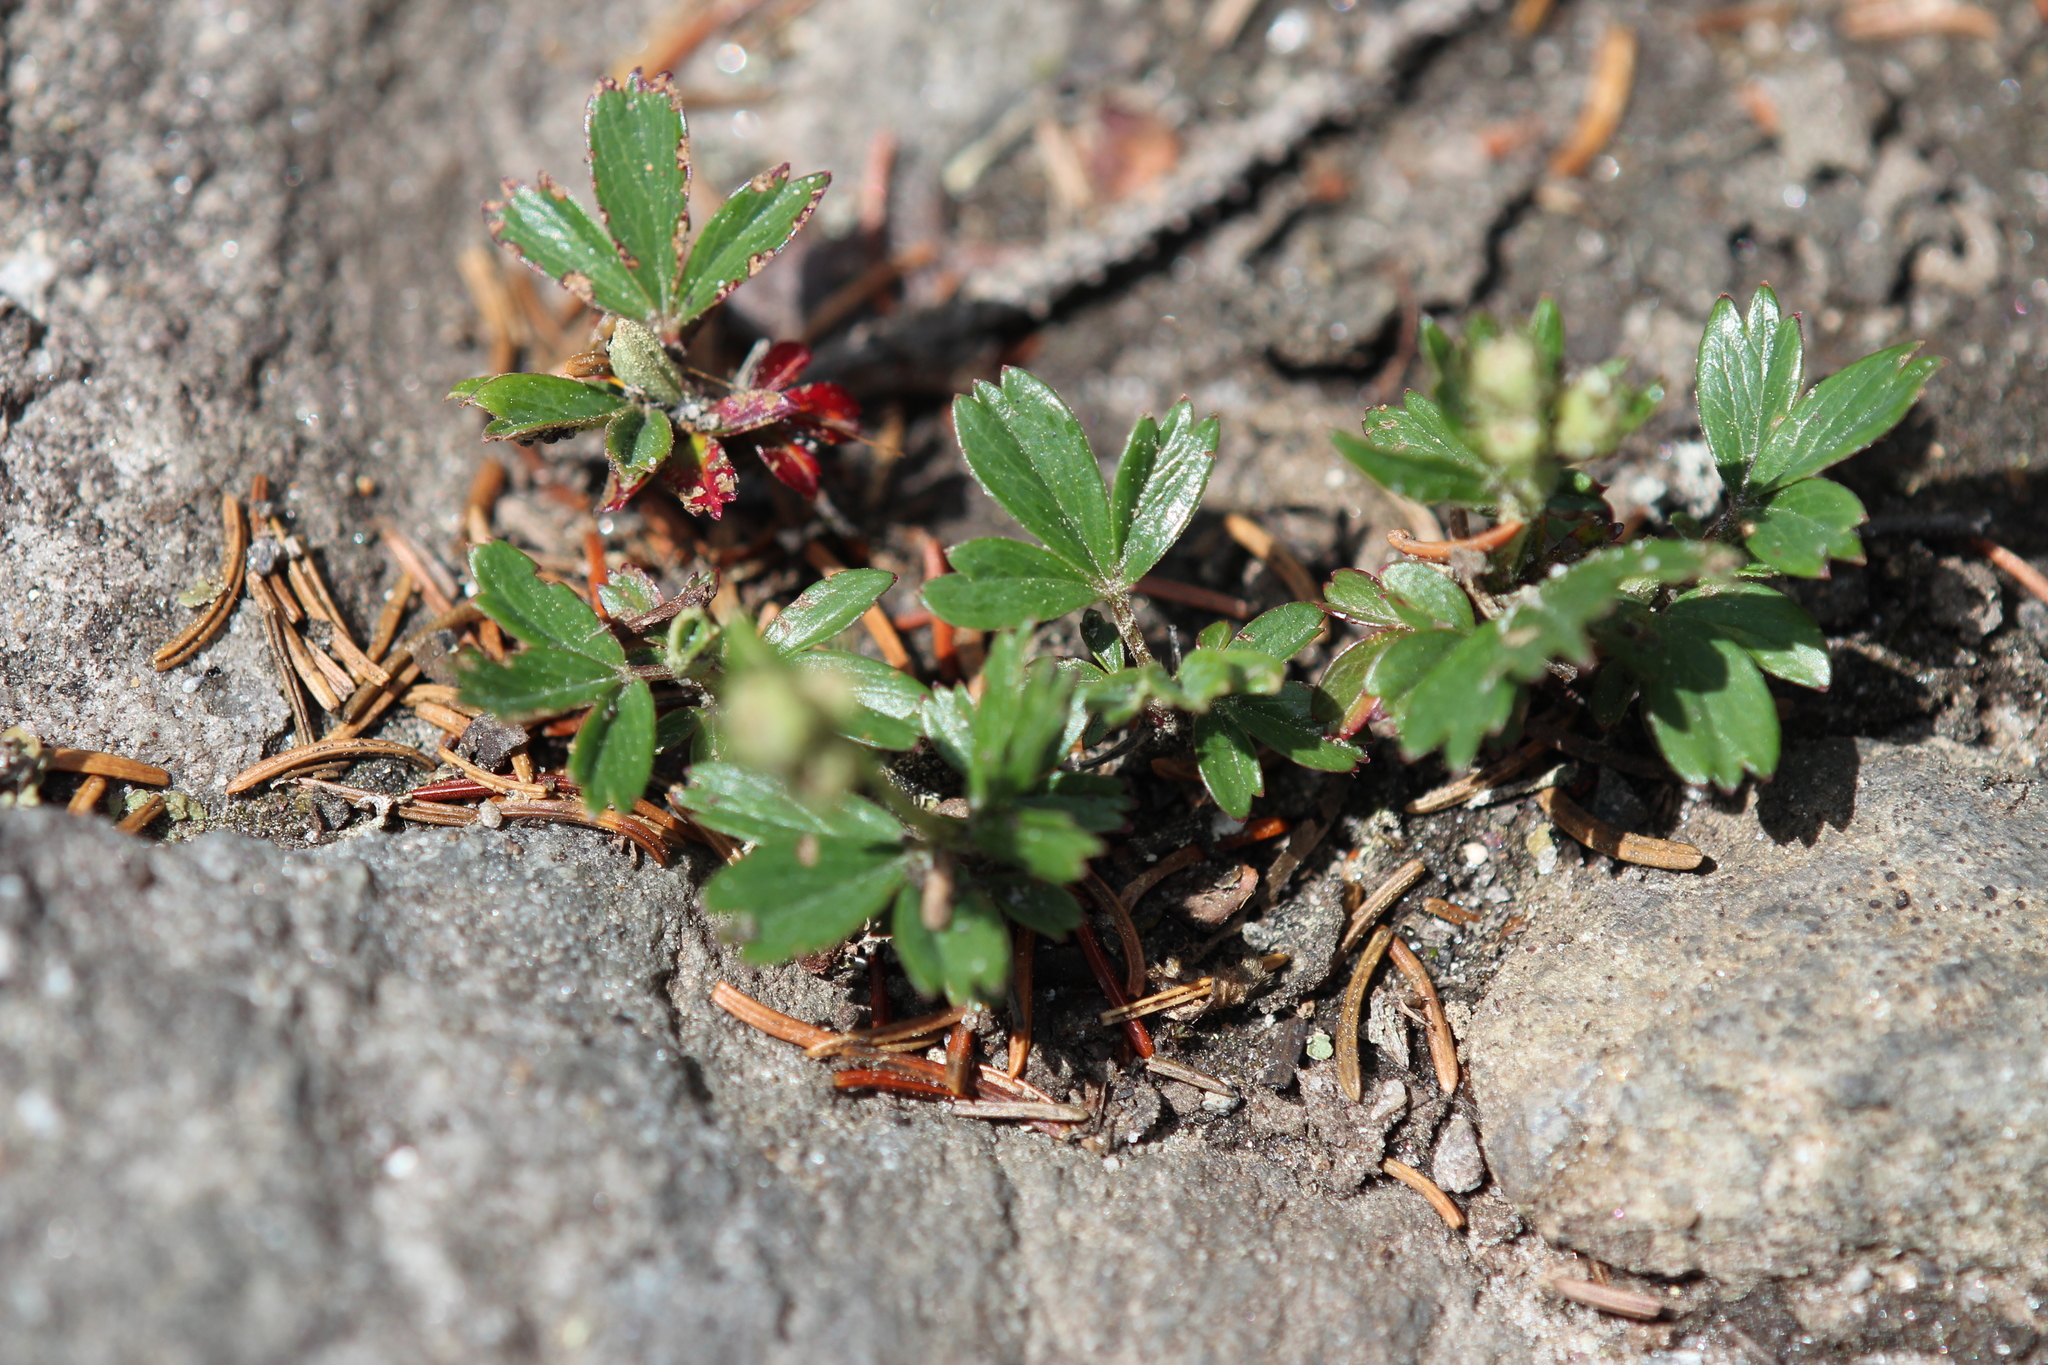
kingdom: Plantae
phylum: Tracheophyta
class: Magnoliopsida
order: Rosales
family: Rosaceae
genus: Sibbaldia
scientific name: Sibbaldia tridentata
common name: Three-toothed cinquefoil
